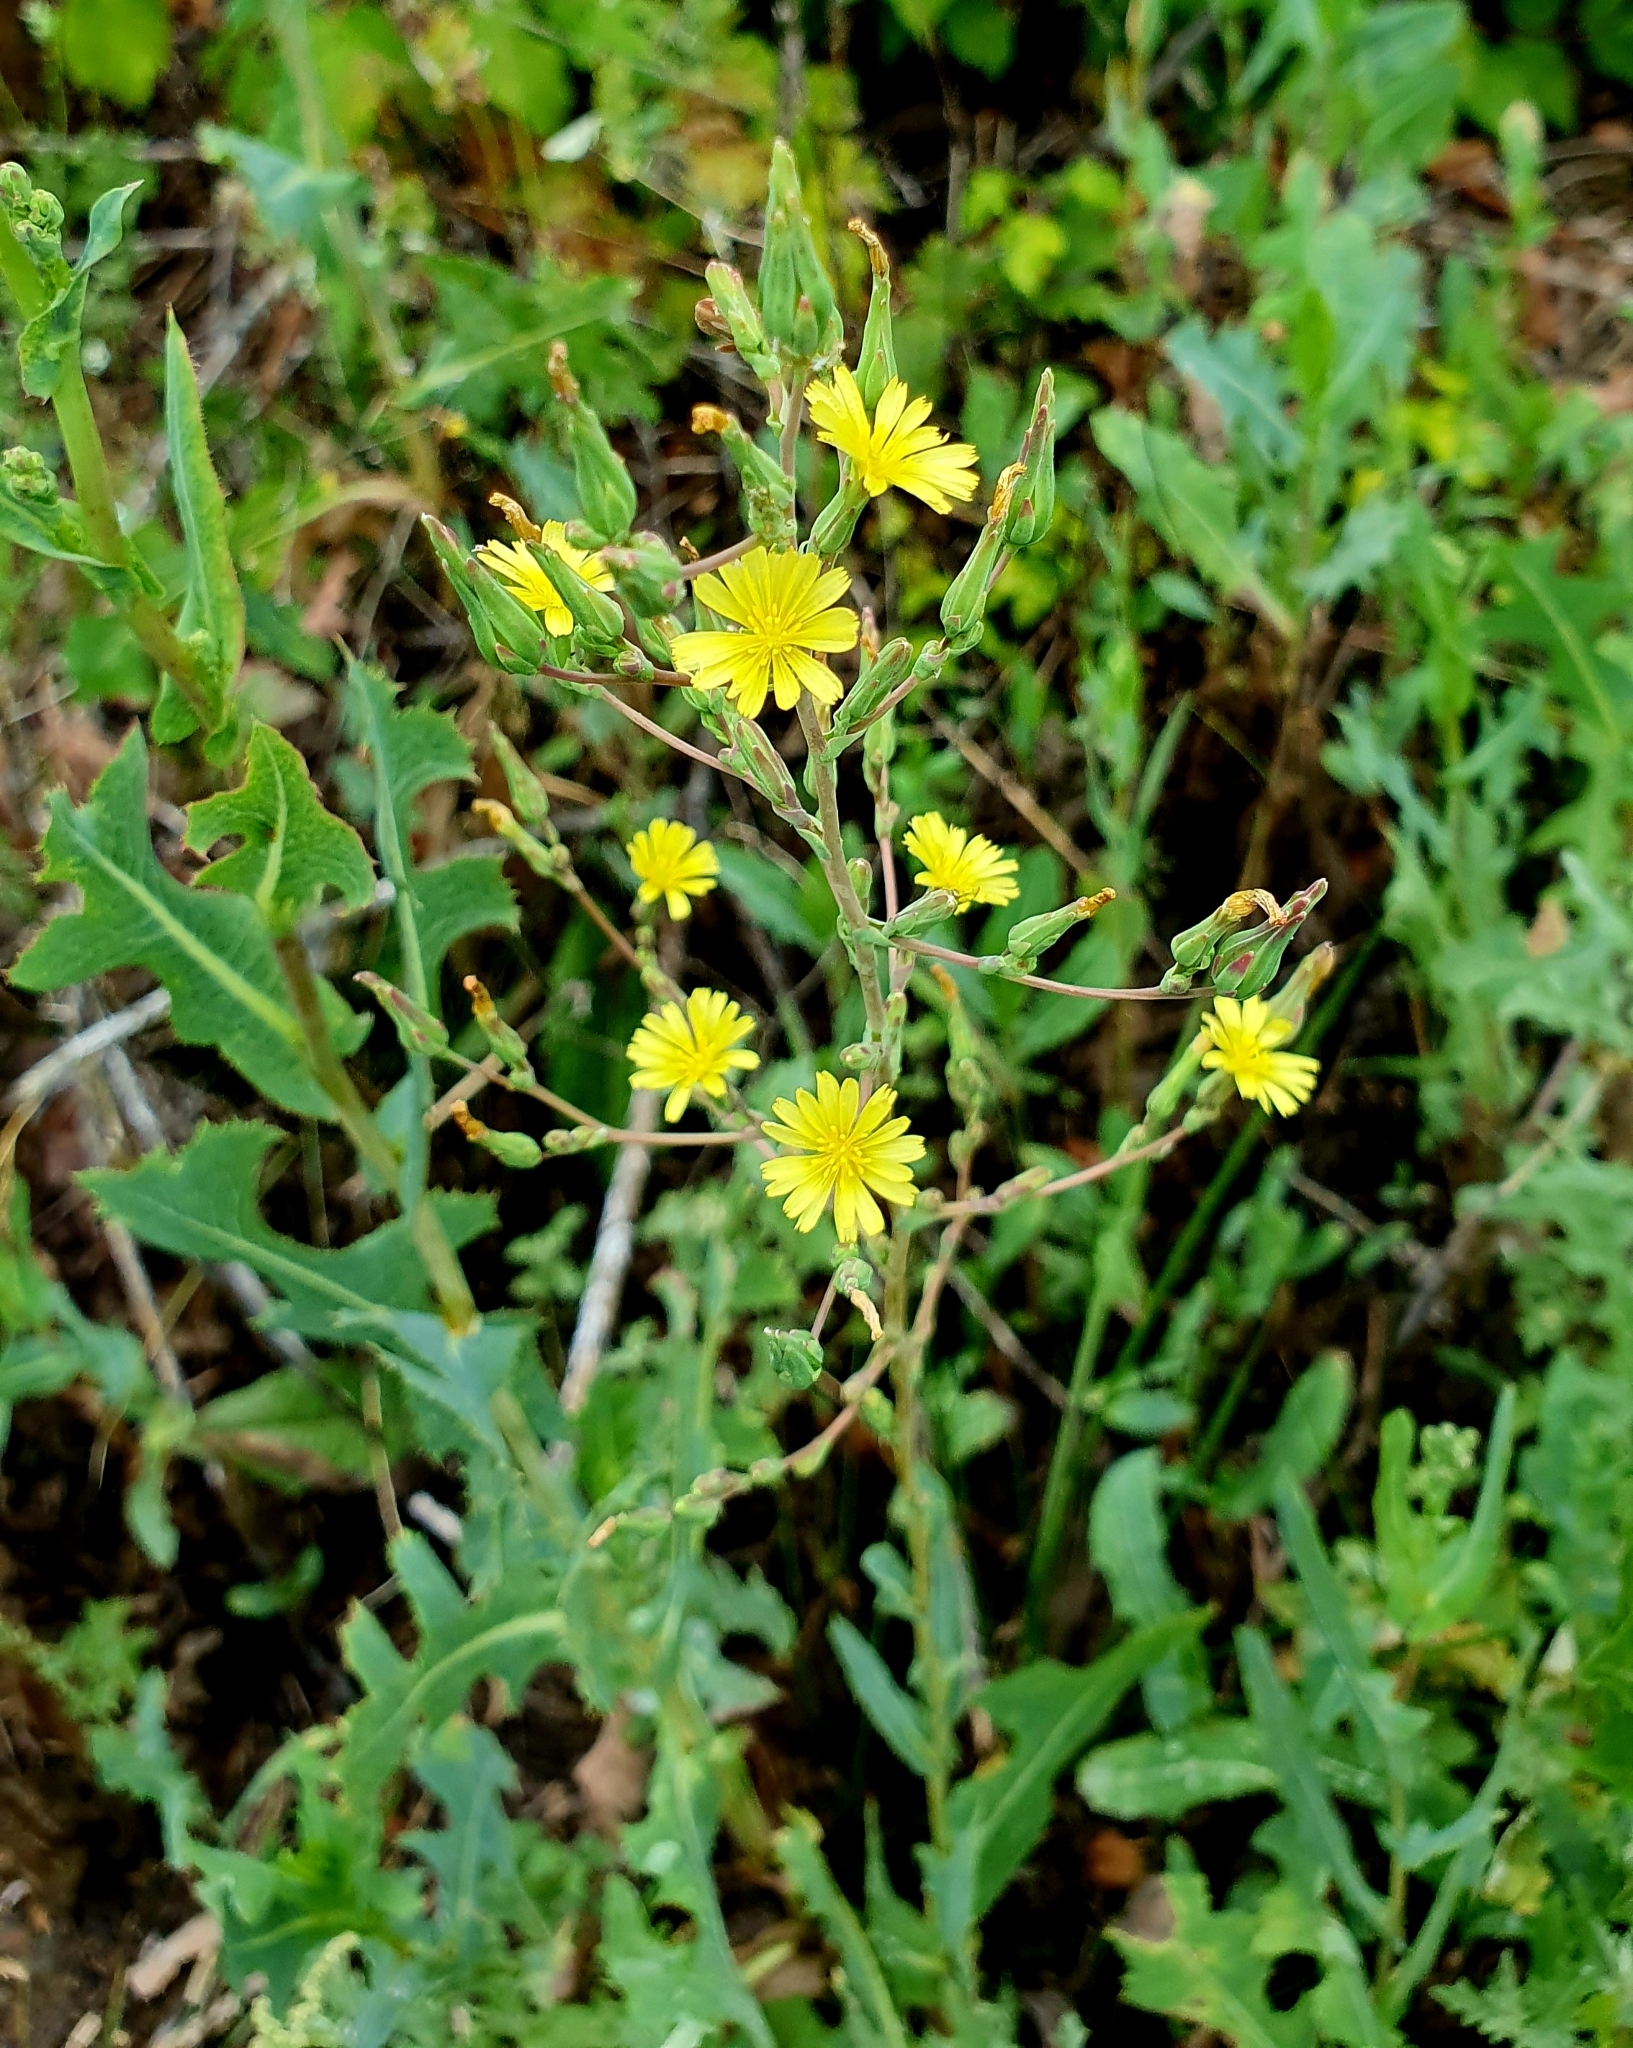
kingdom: Plantae
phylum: Tracheophyta
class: Magnoliopsida
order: Asterales
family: Asteraceae
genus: Lactuca
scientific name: Lactuca serriola
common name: Prickly lettuce
